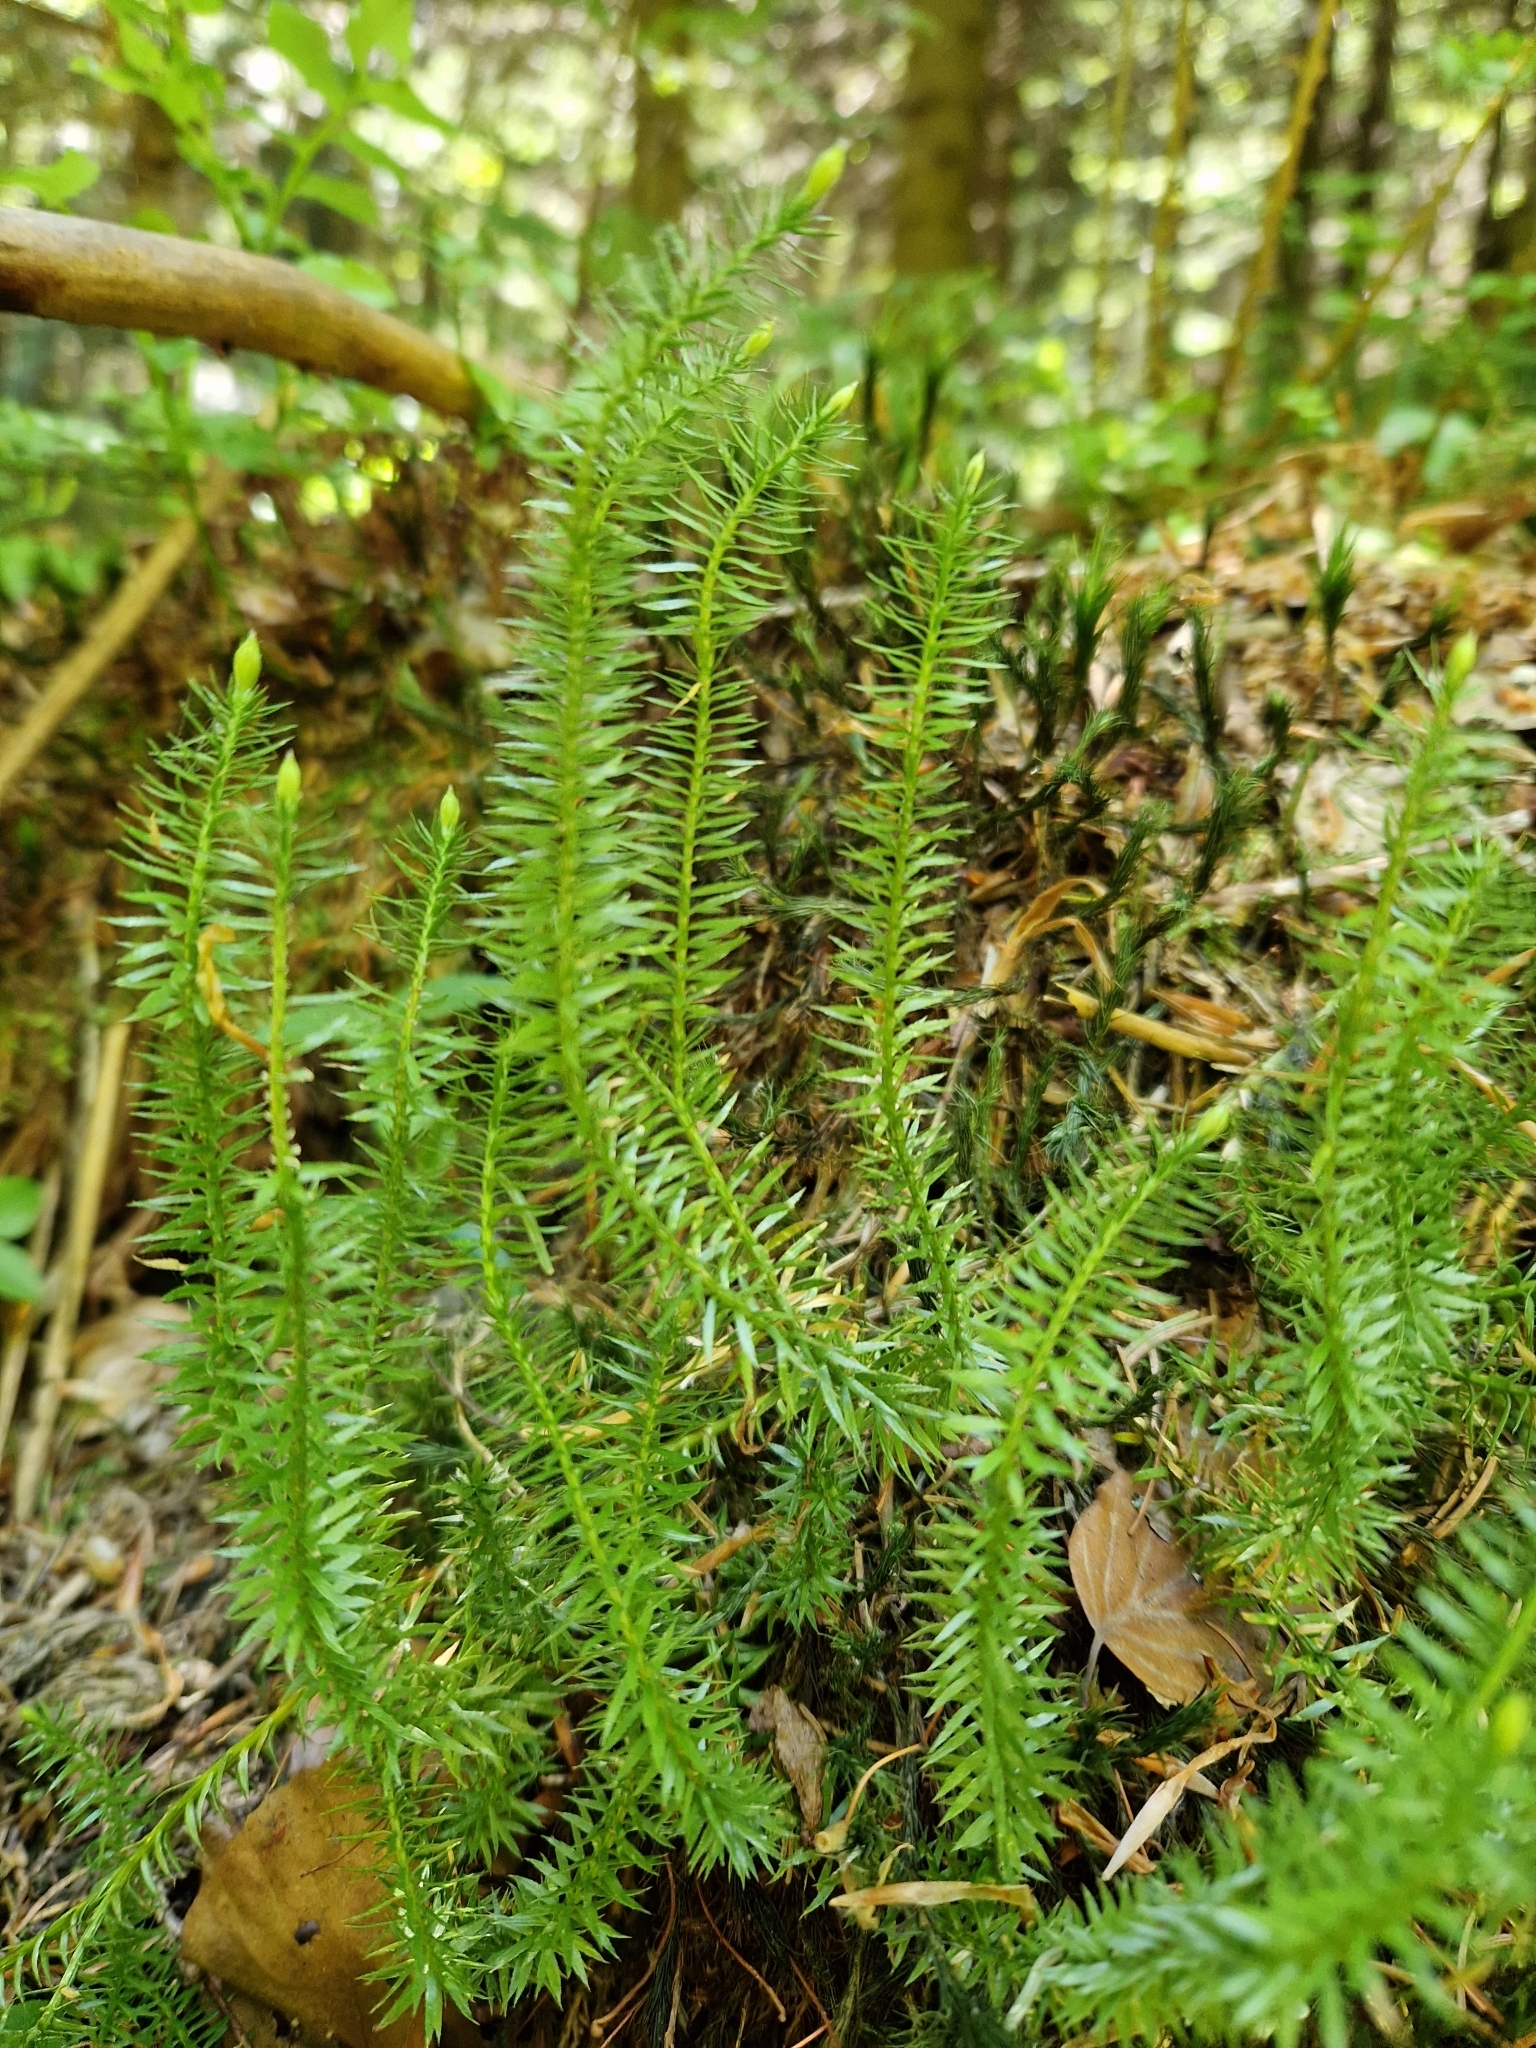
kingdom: Plantae
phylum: Tracheophyta
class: Lycopodiopsida
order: Lycopodiales
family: Lycopodiaceae
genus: Spinulum
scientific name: Spinulum annotinum
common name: Interrupted club-moss
